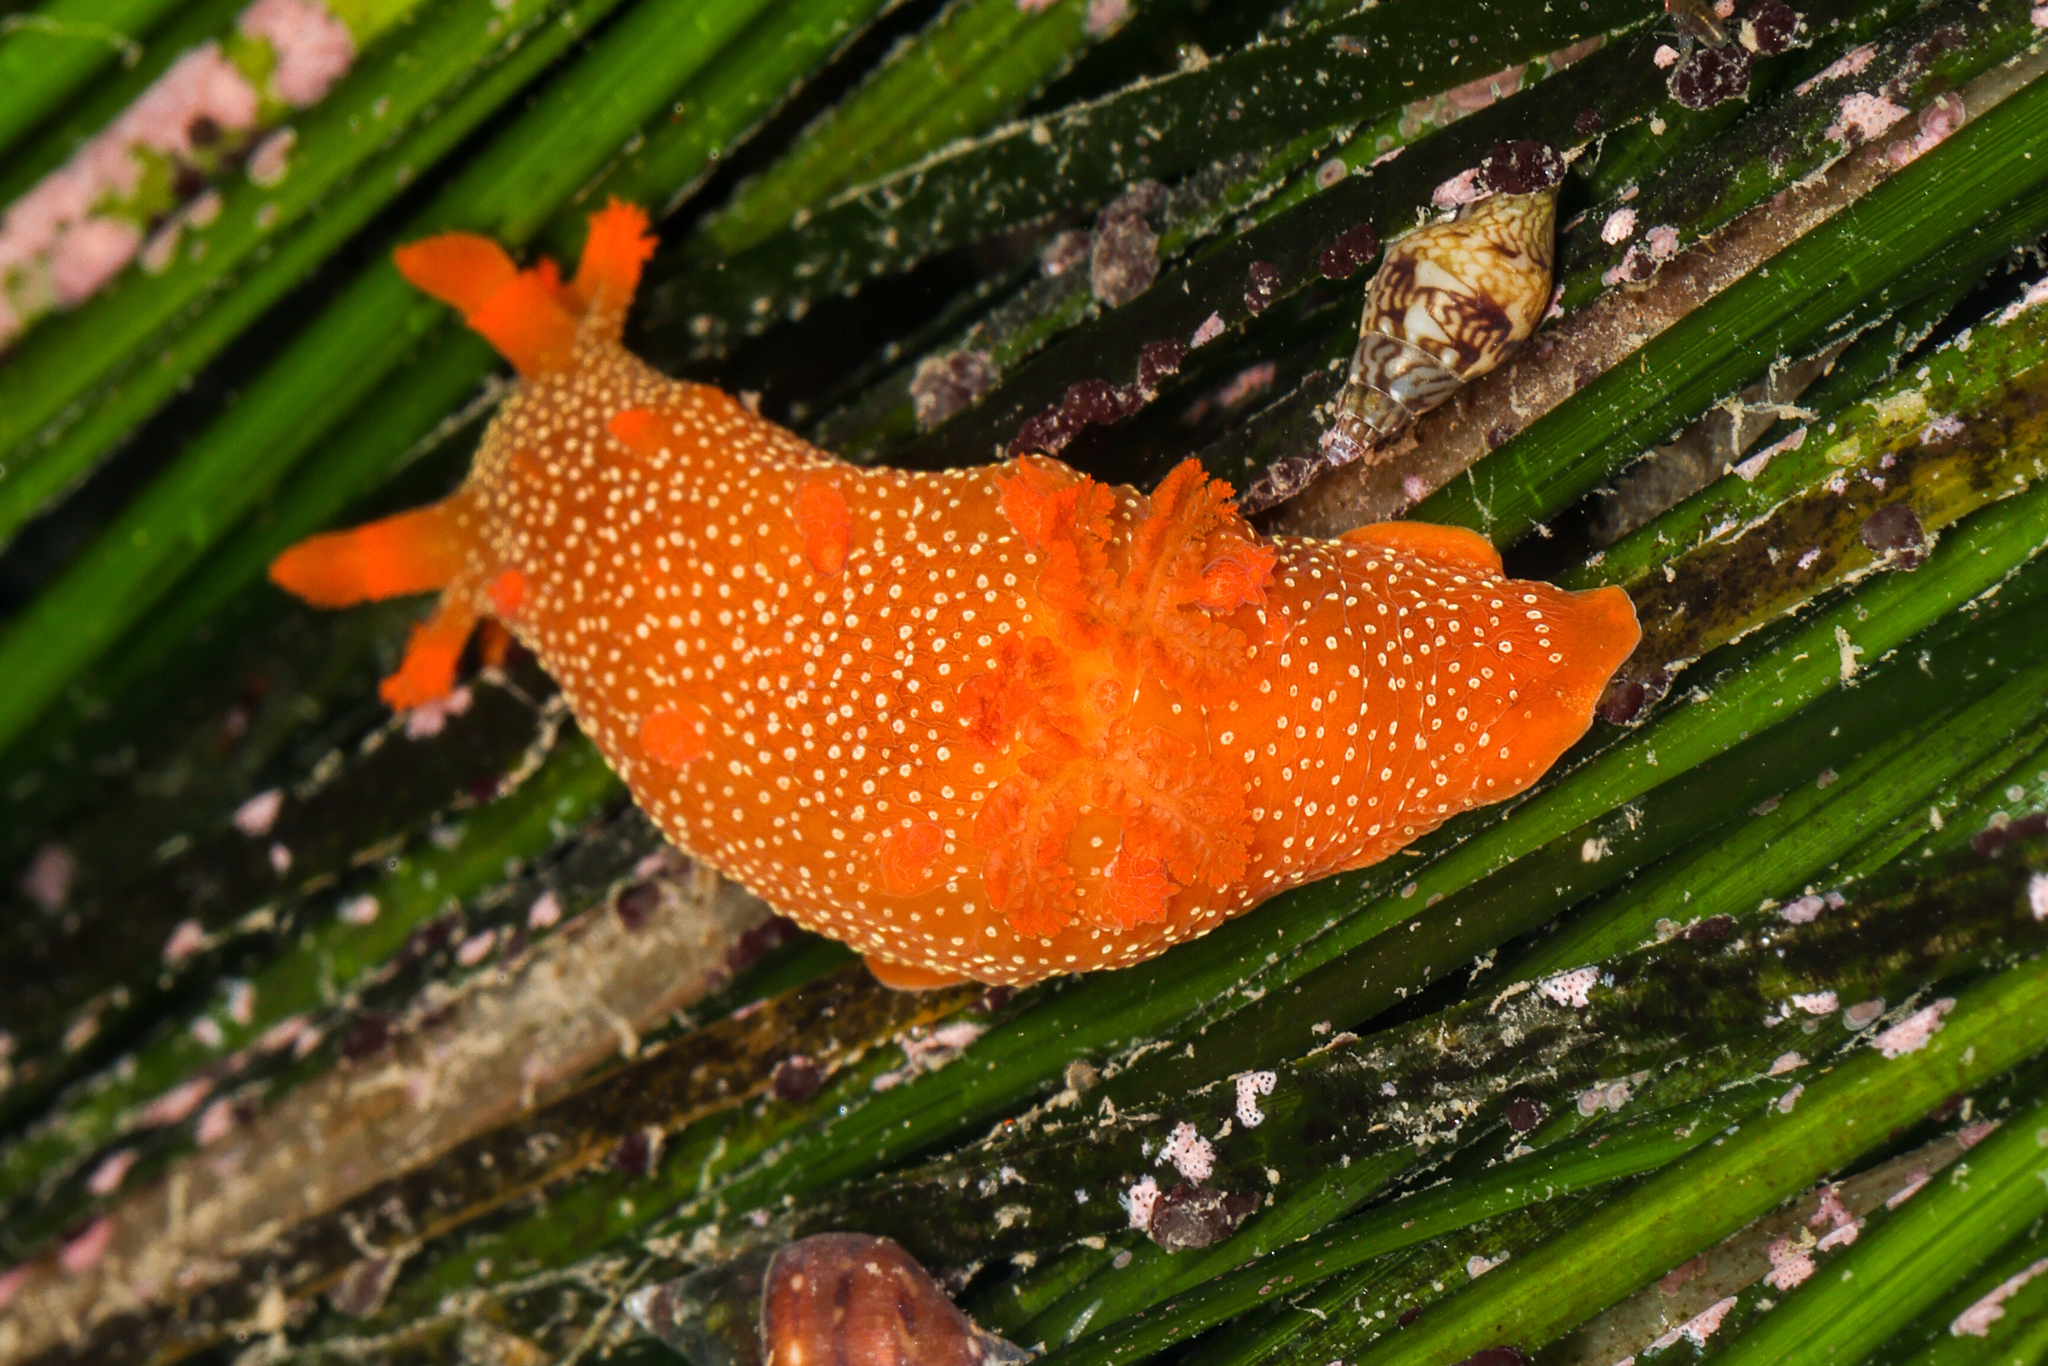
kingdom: Animalia
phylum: Mollusca
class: Gastropoda
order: Nudibranchia
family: Polyceridae
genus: Triopha
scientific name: Triopha maculata
